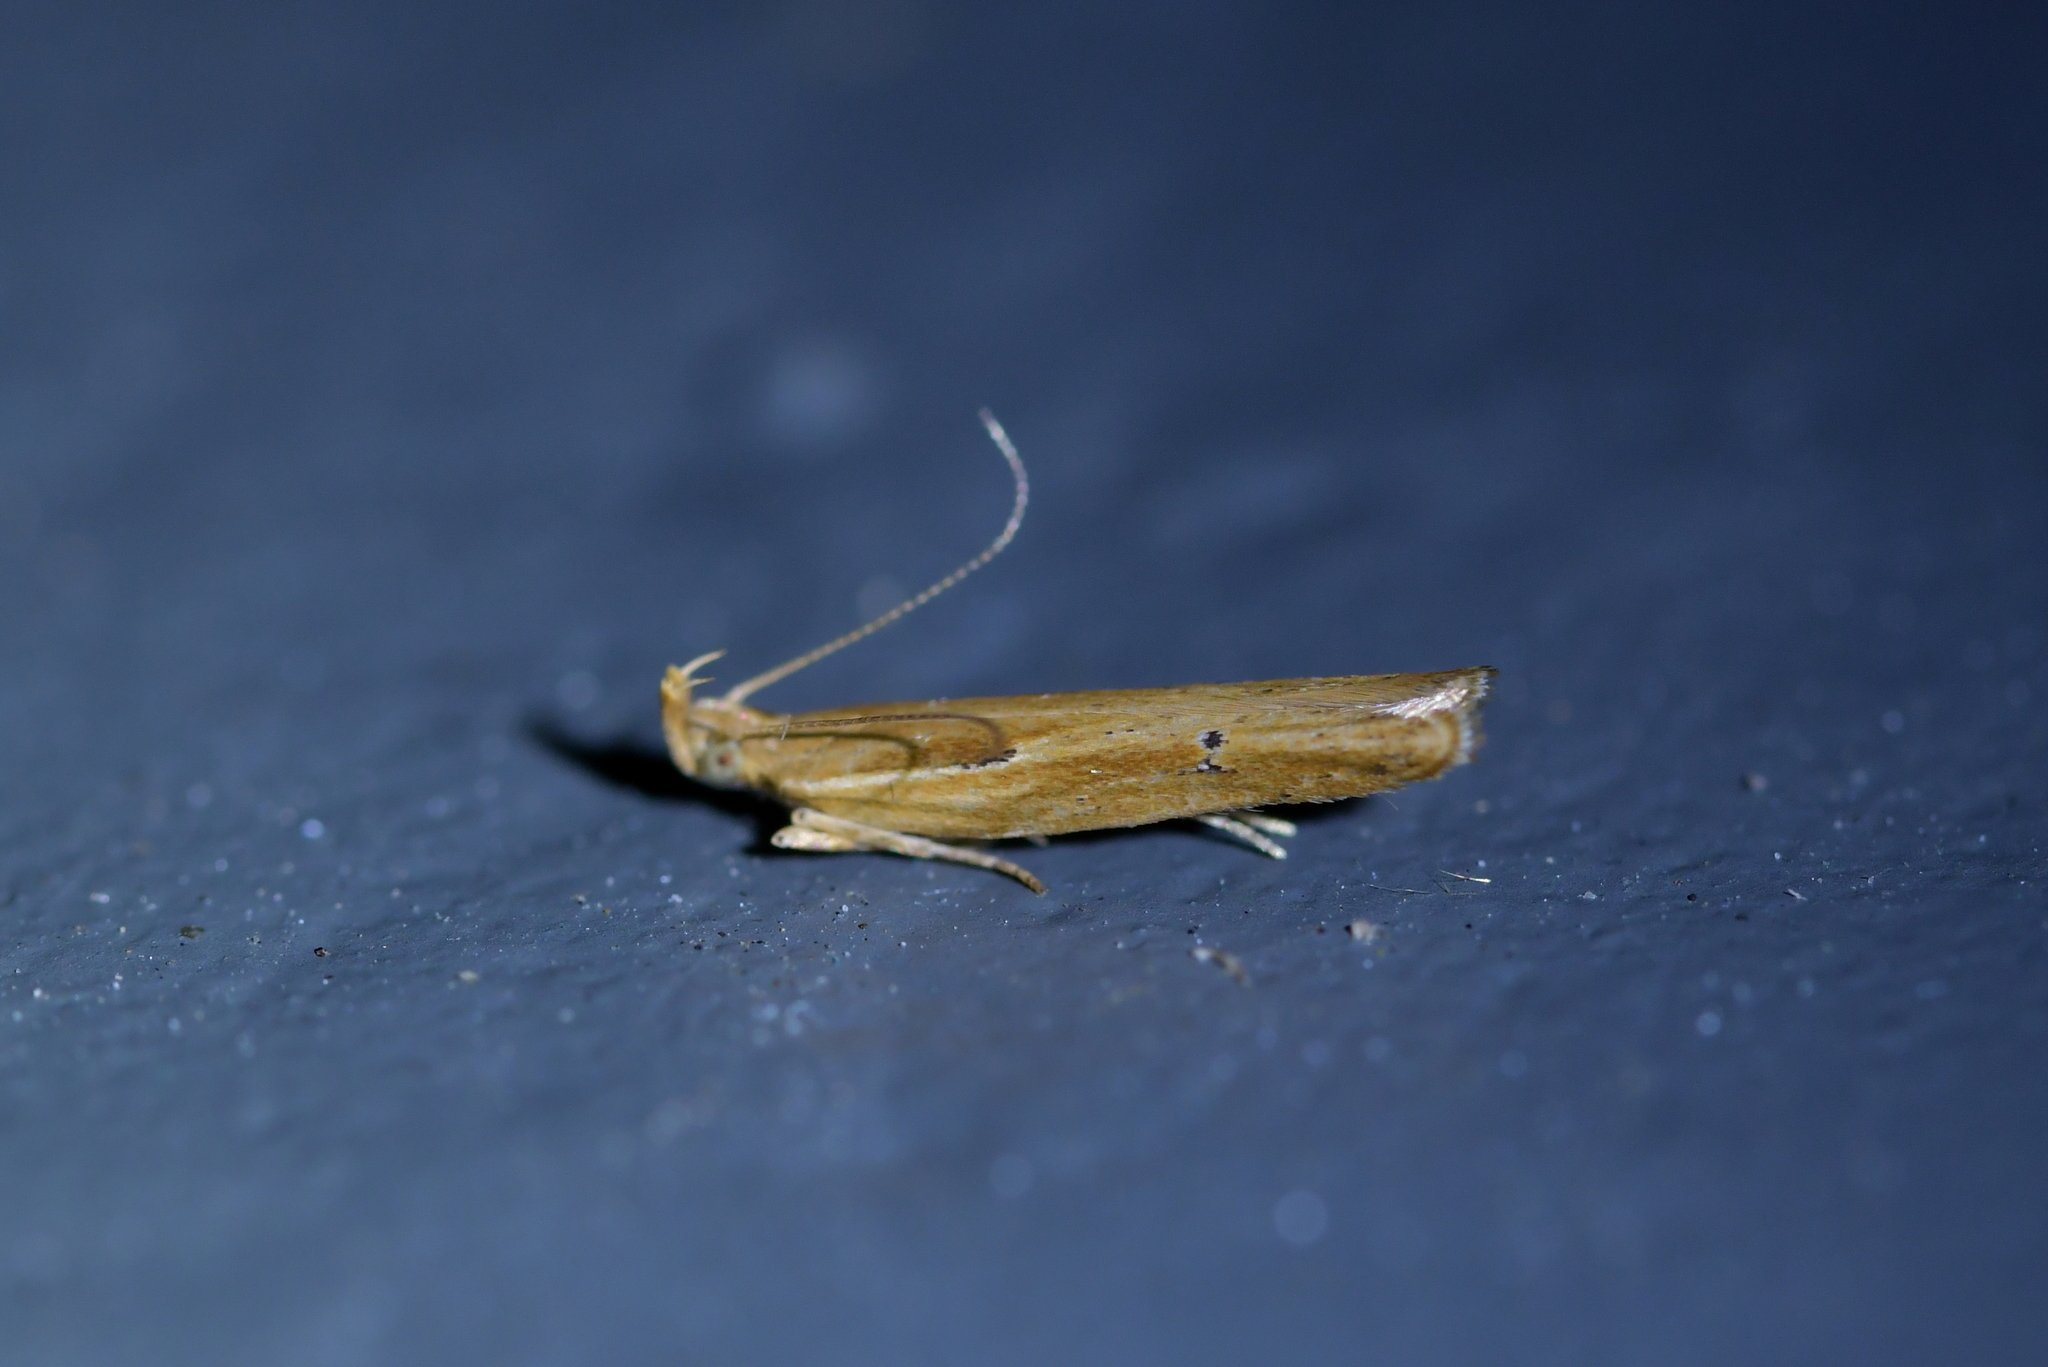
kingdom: Animalia
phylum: Arthropoda
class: Insecta
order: Lepidoptera
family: Depressariidae
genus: Eutorna
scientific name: Eutorna symmorpha
